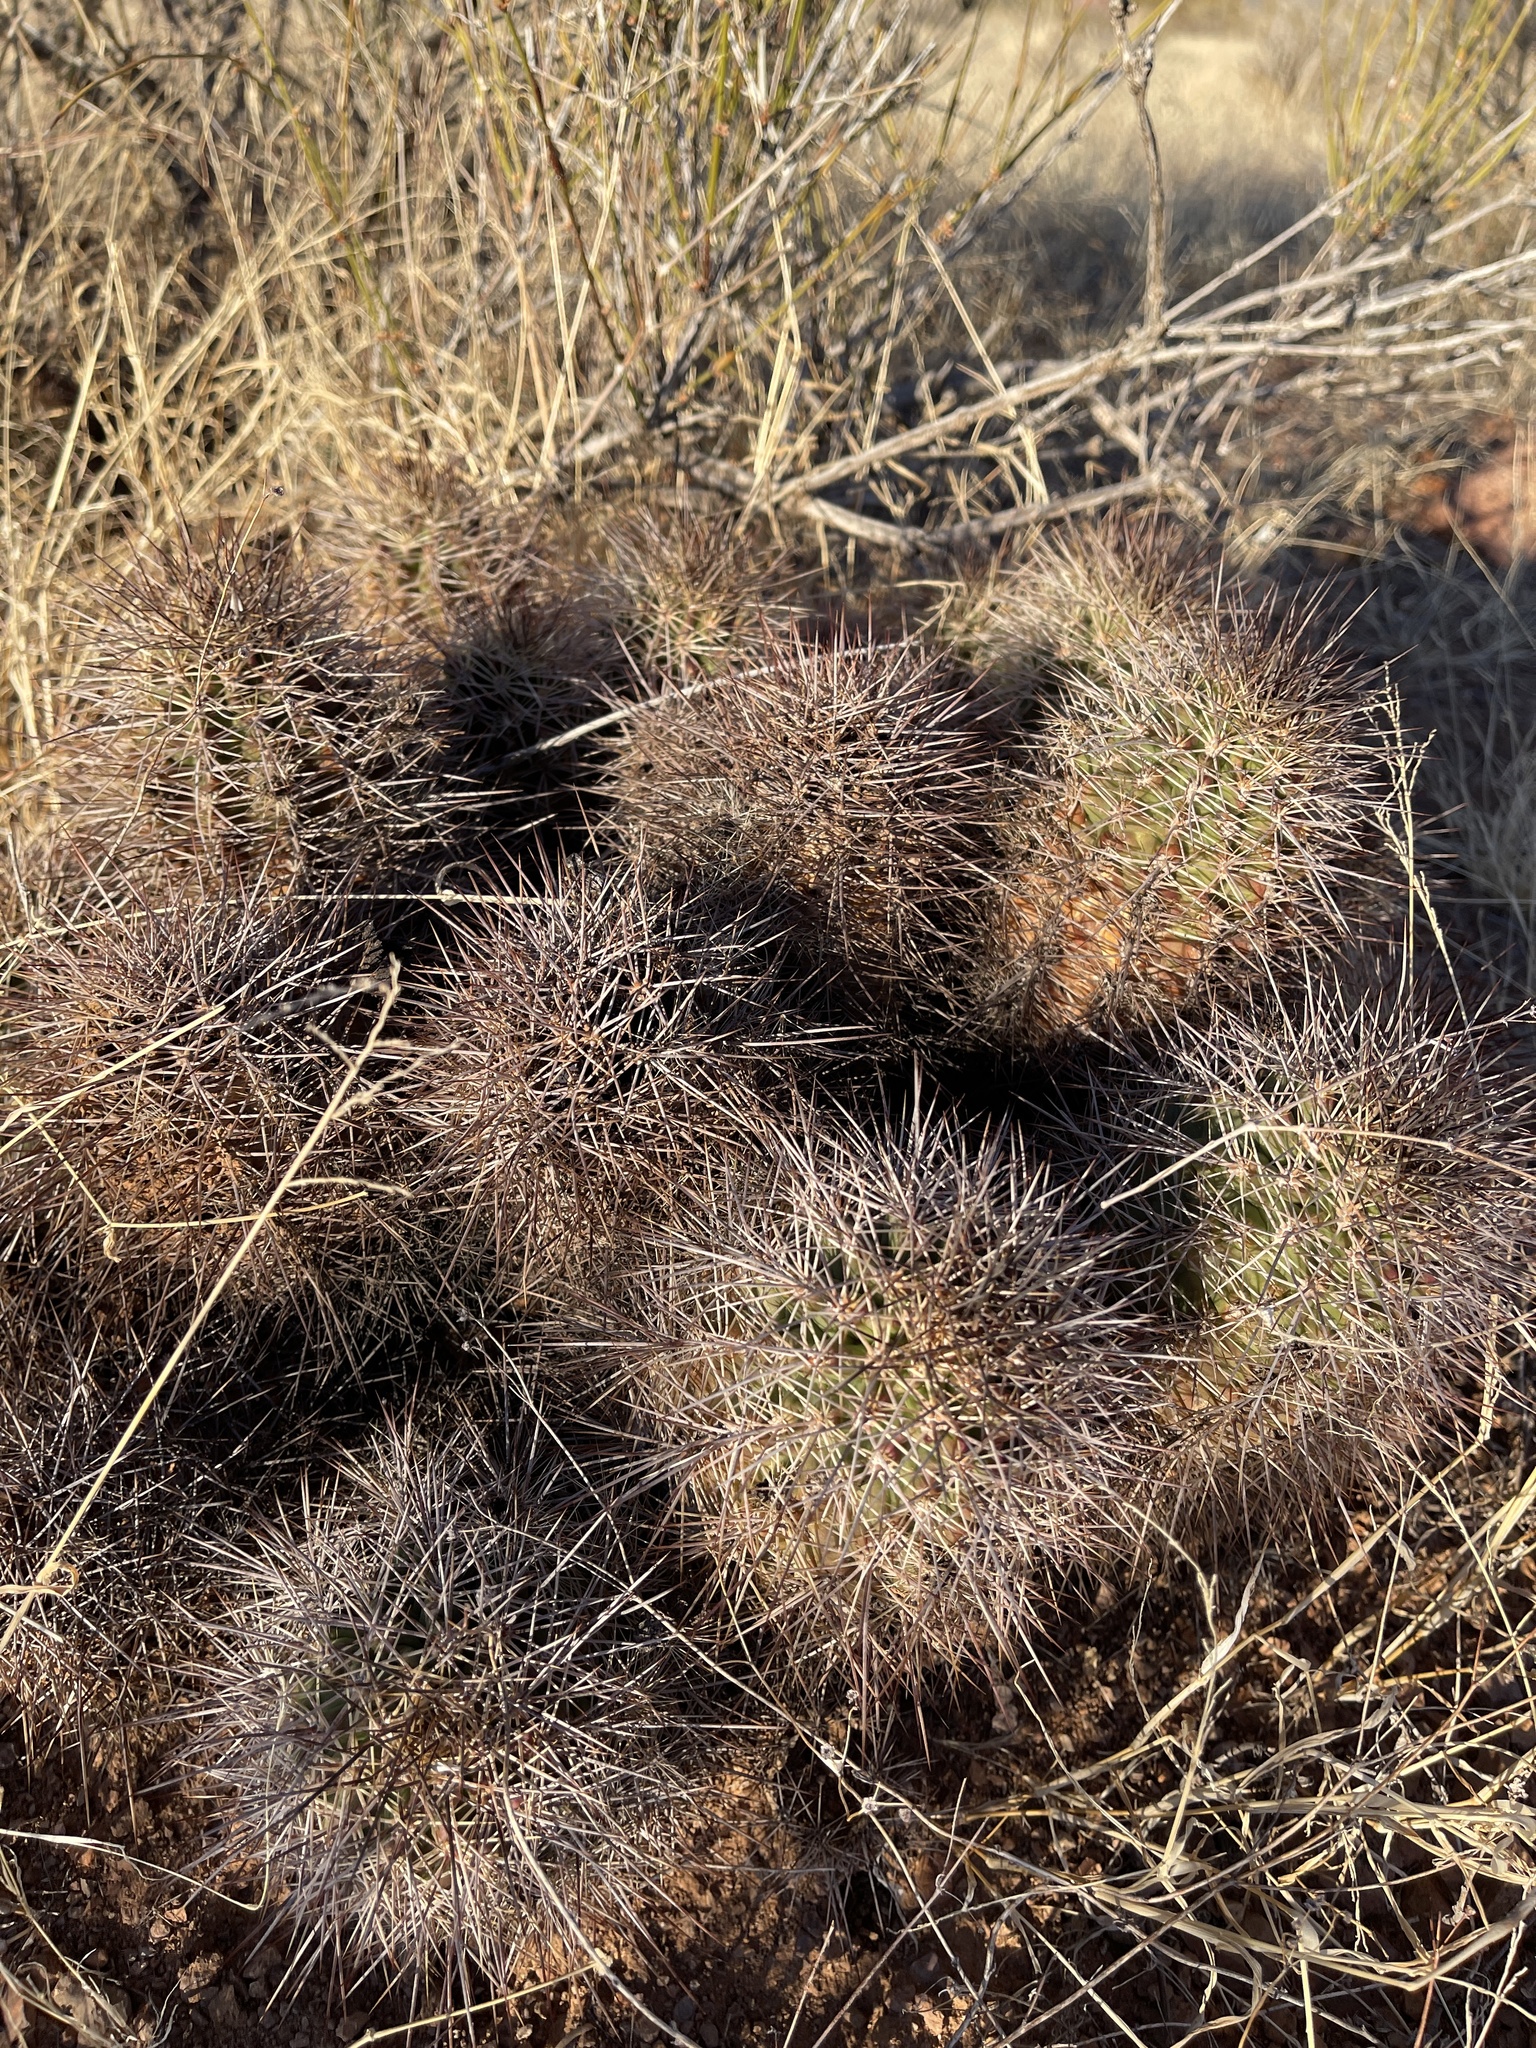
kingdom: Plantae
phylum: Tracheophyta
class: Magnoliopsida
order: Caryophyllales
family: Cactaceae
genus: Echinocereus
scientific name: Echinocereus coccineus
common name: Scarlet hedgehog cactus
